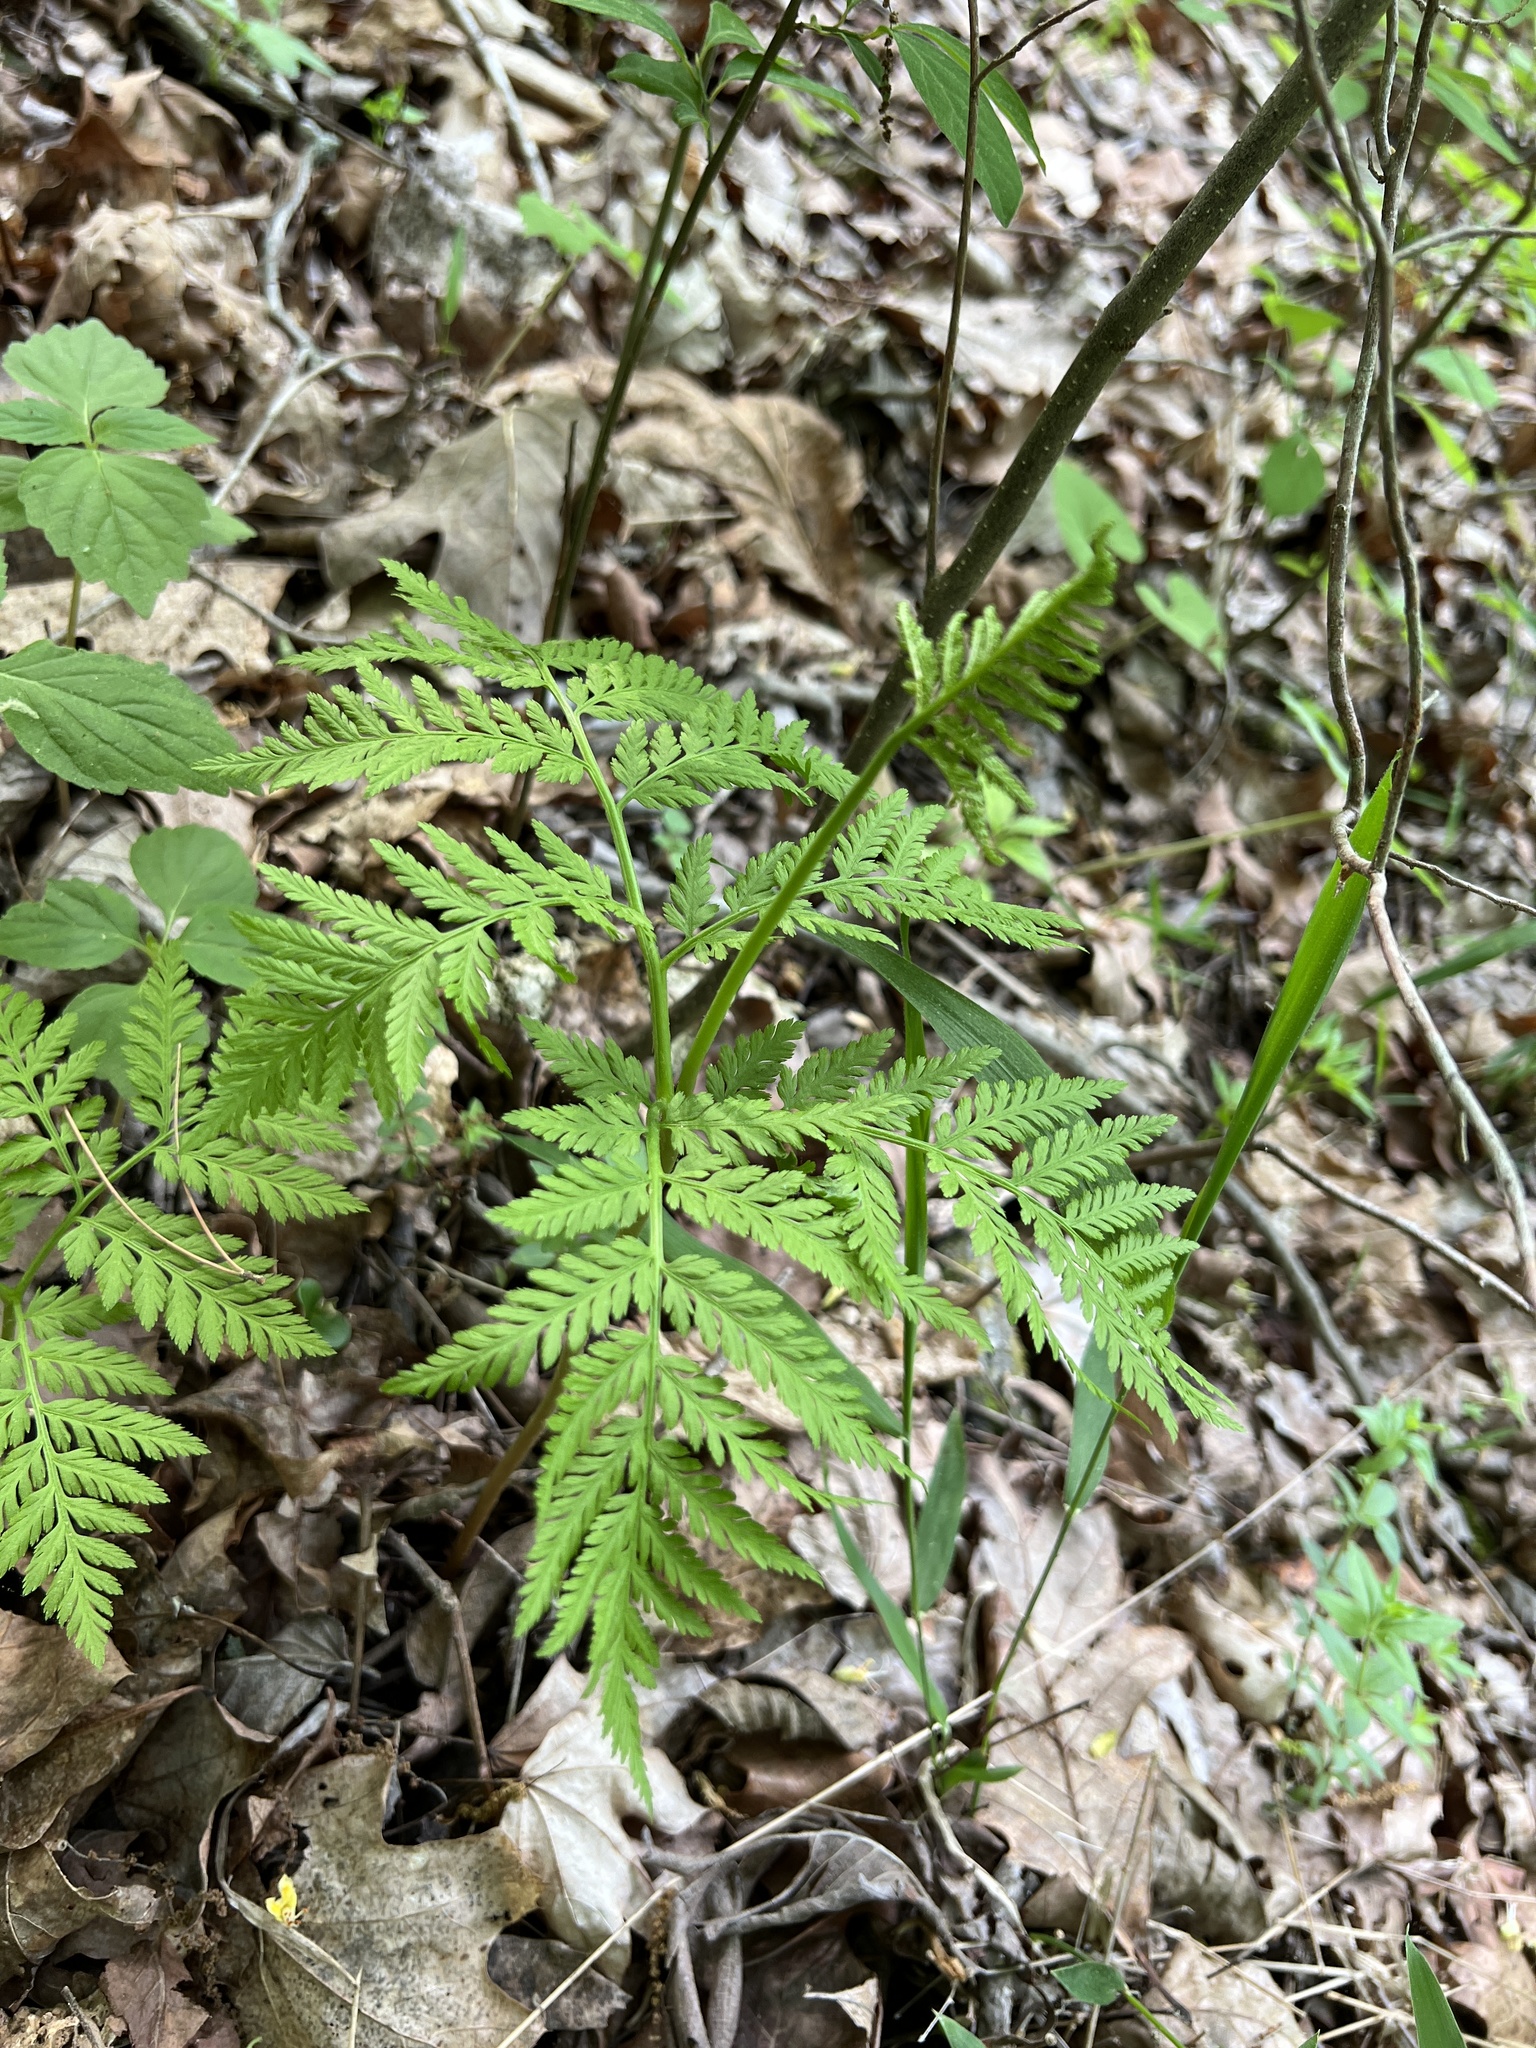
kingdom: Plantae
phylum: Tracheophyta
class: Polypodiopsida
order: Ophioglossales
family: Ophioglossaceae
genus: Botrypus
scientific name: Botrypus virginianus
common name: Common grapefern
